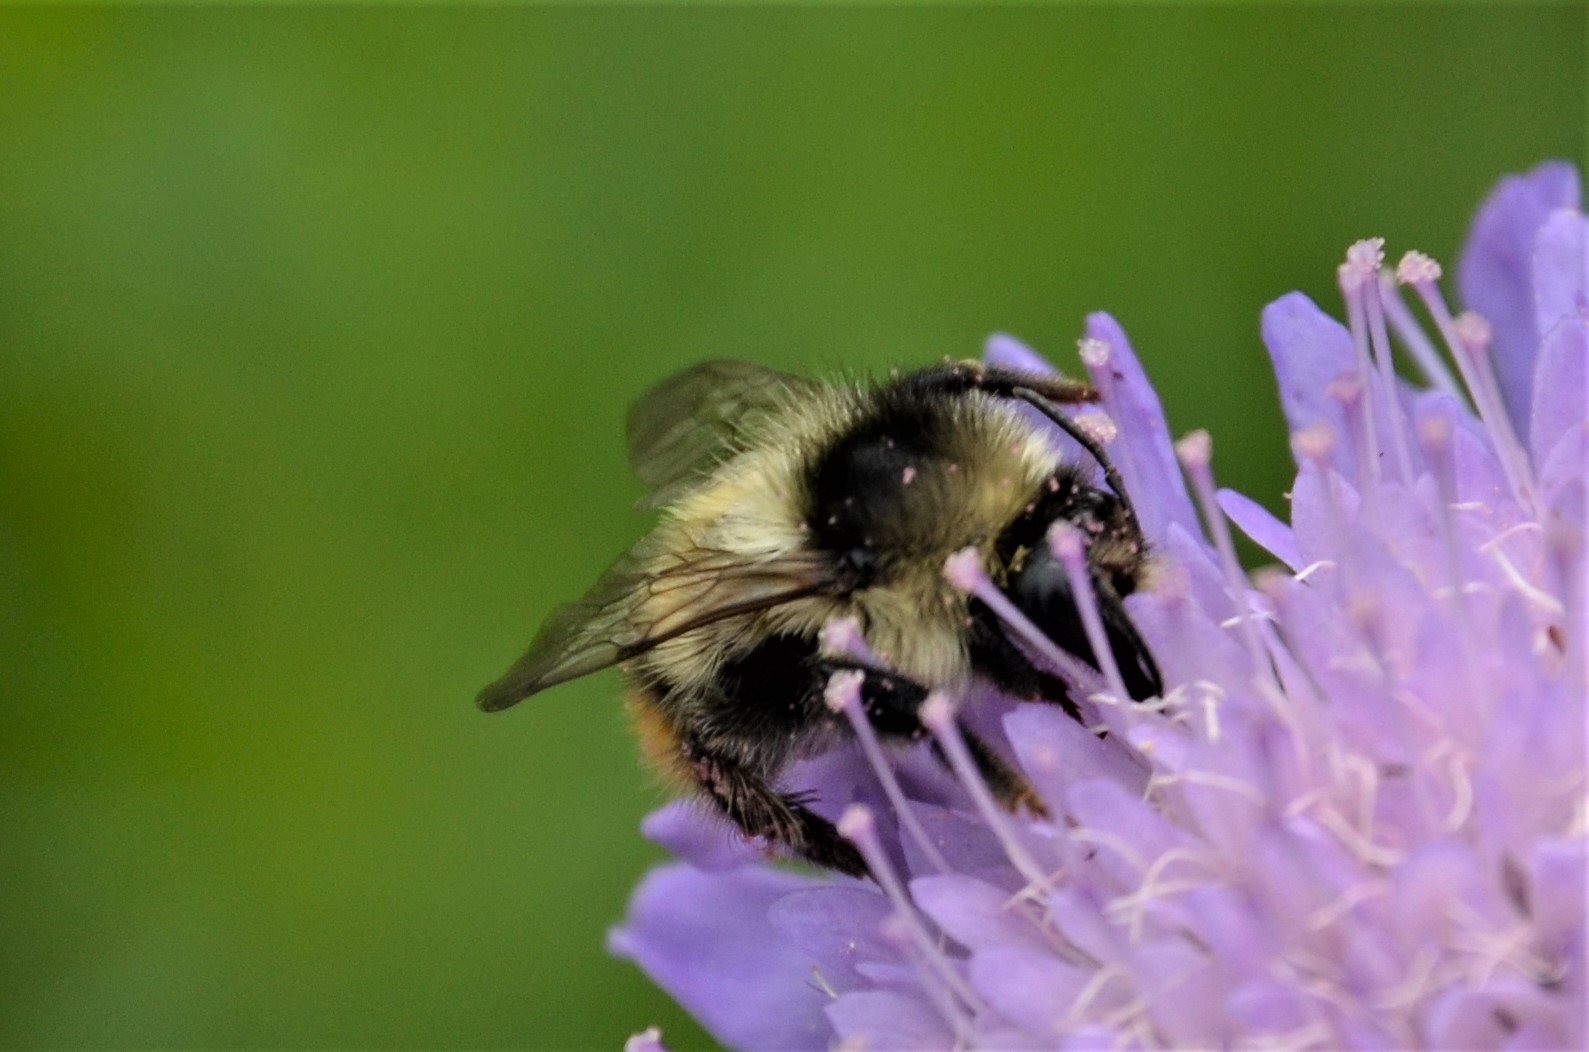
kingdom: Animalia
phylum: Arthropoda
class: Insecta
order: Hymenoptera
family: Apidae
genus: Bombus
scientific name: Bombus sylvarum
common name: Shrill carder bee
